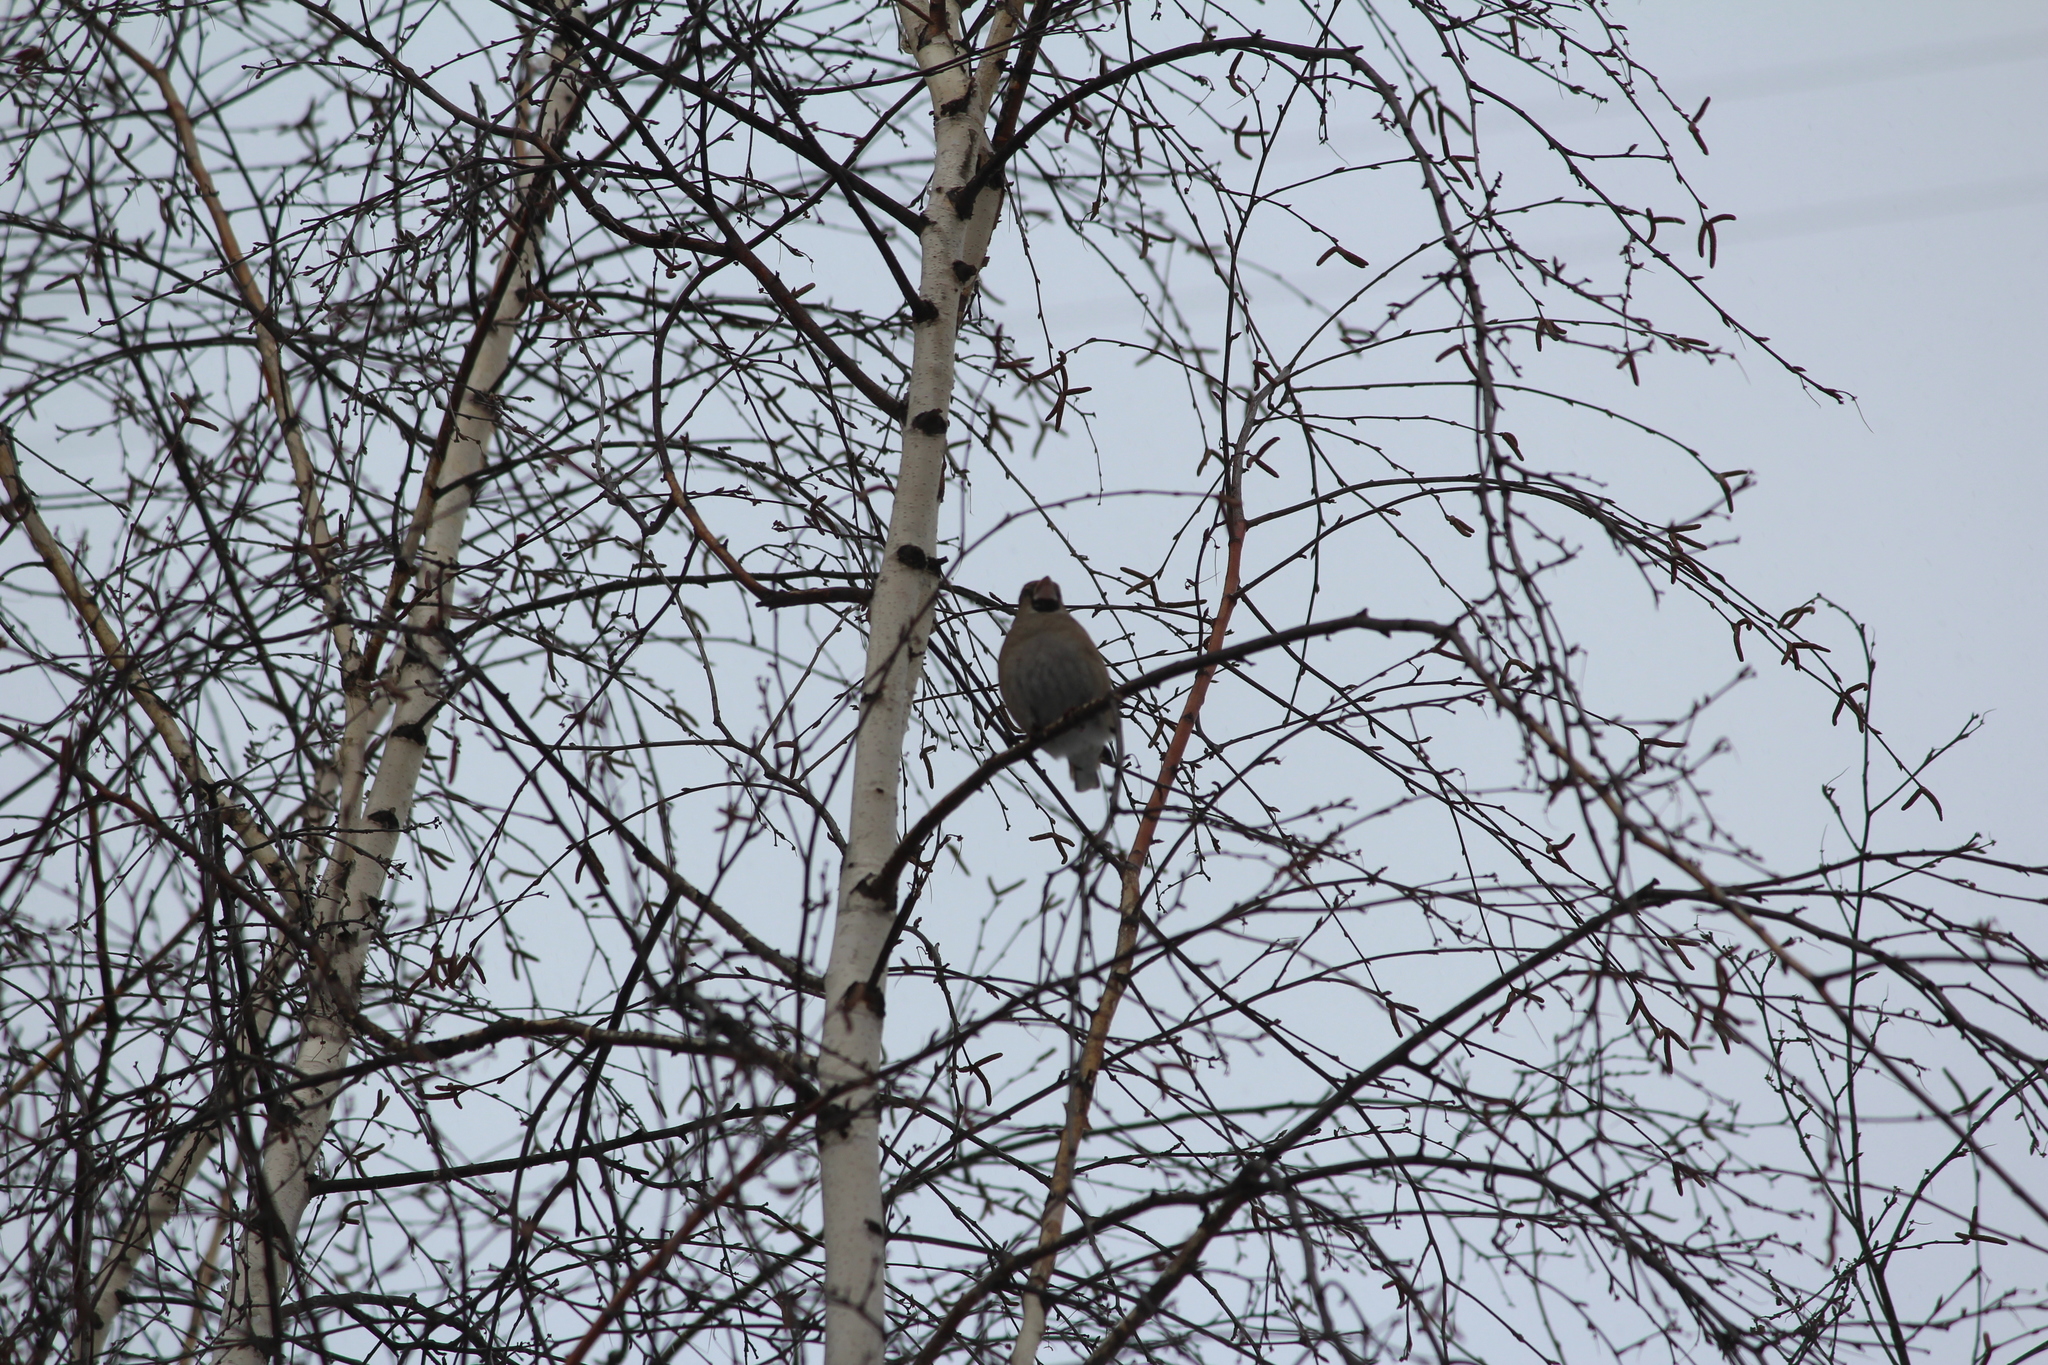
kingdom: Animalia
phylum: Chordata
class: Aves
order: Passeriformes
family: Fringillidae
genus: Coccothraustes
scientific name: Coccothraustes coccothraustes
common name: Hawfinch
